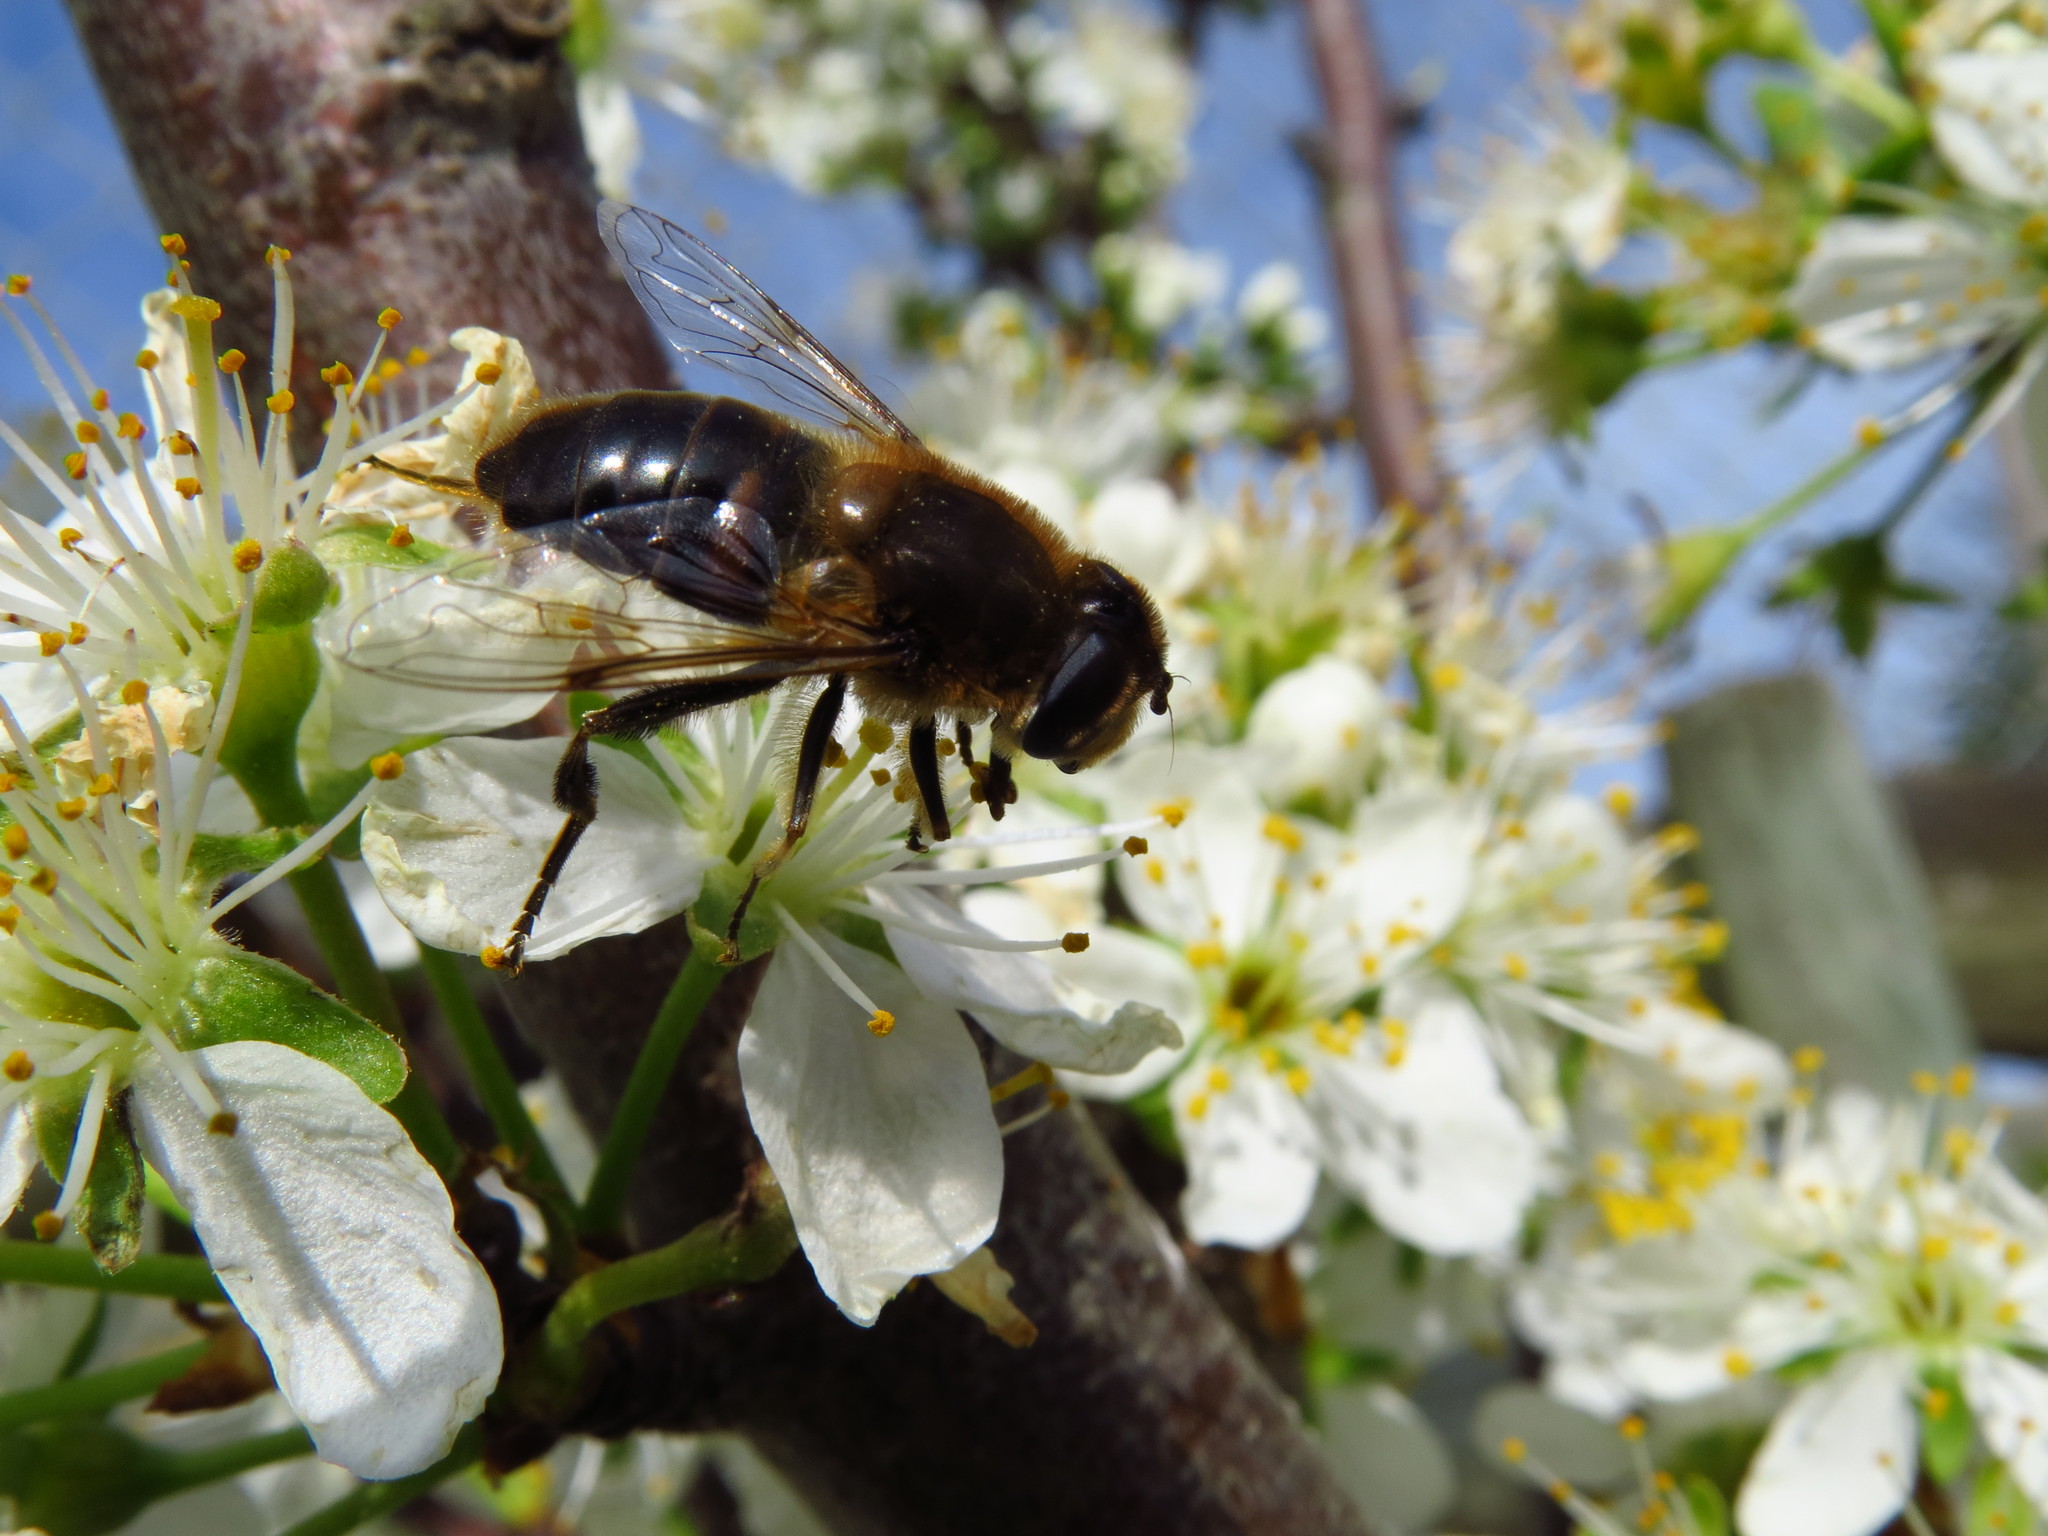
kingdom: Animalia
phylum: Arthropoda
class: Insecta
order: Diptera
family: Syrphidae
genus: Eristalis
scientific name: Eristalis tenax
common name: Drone fly
